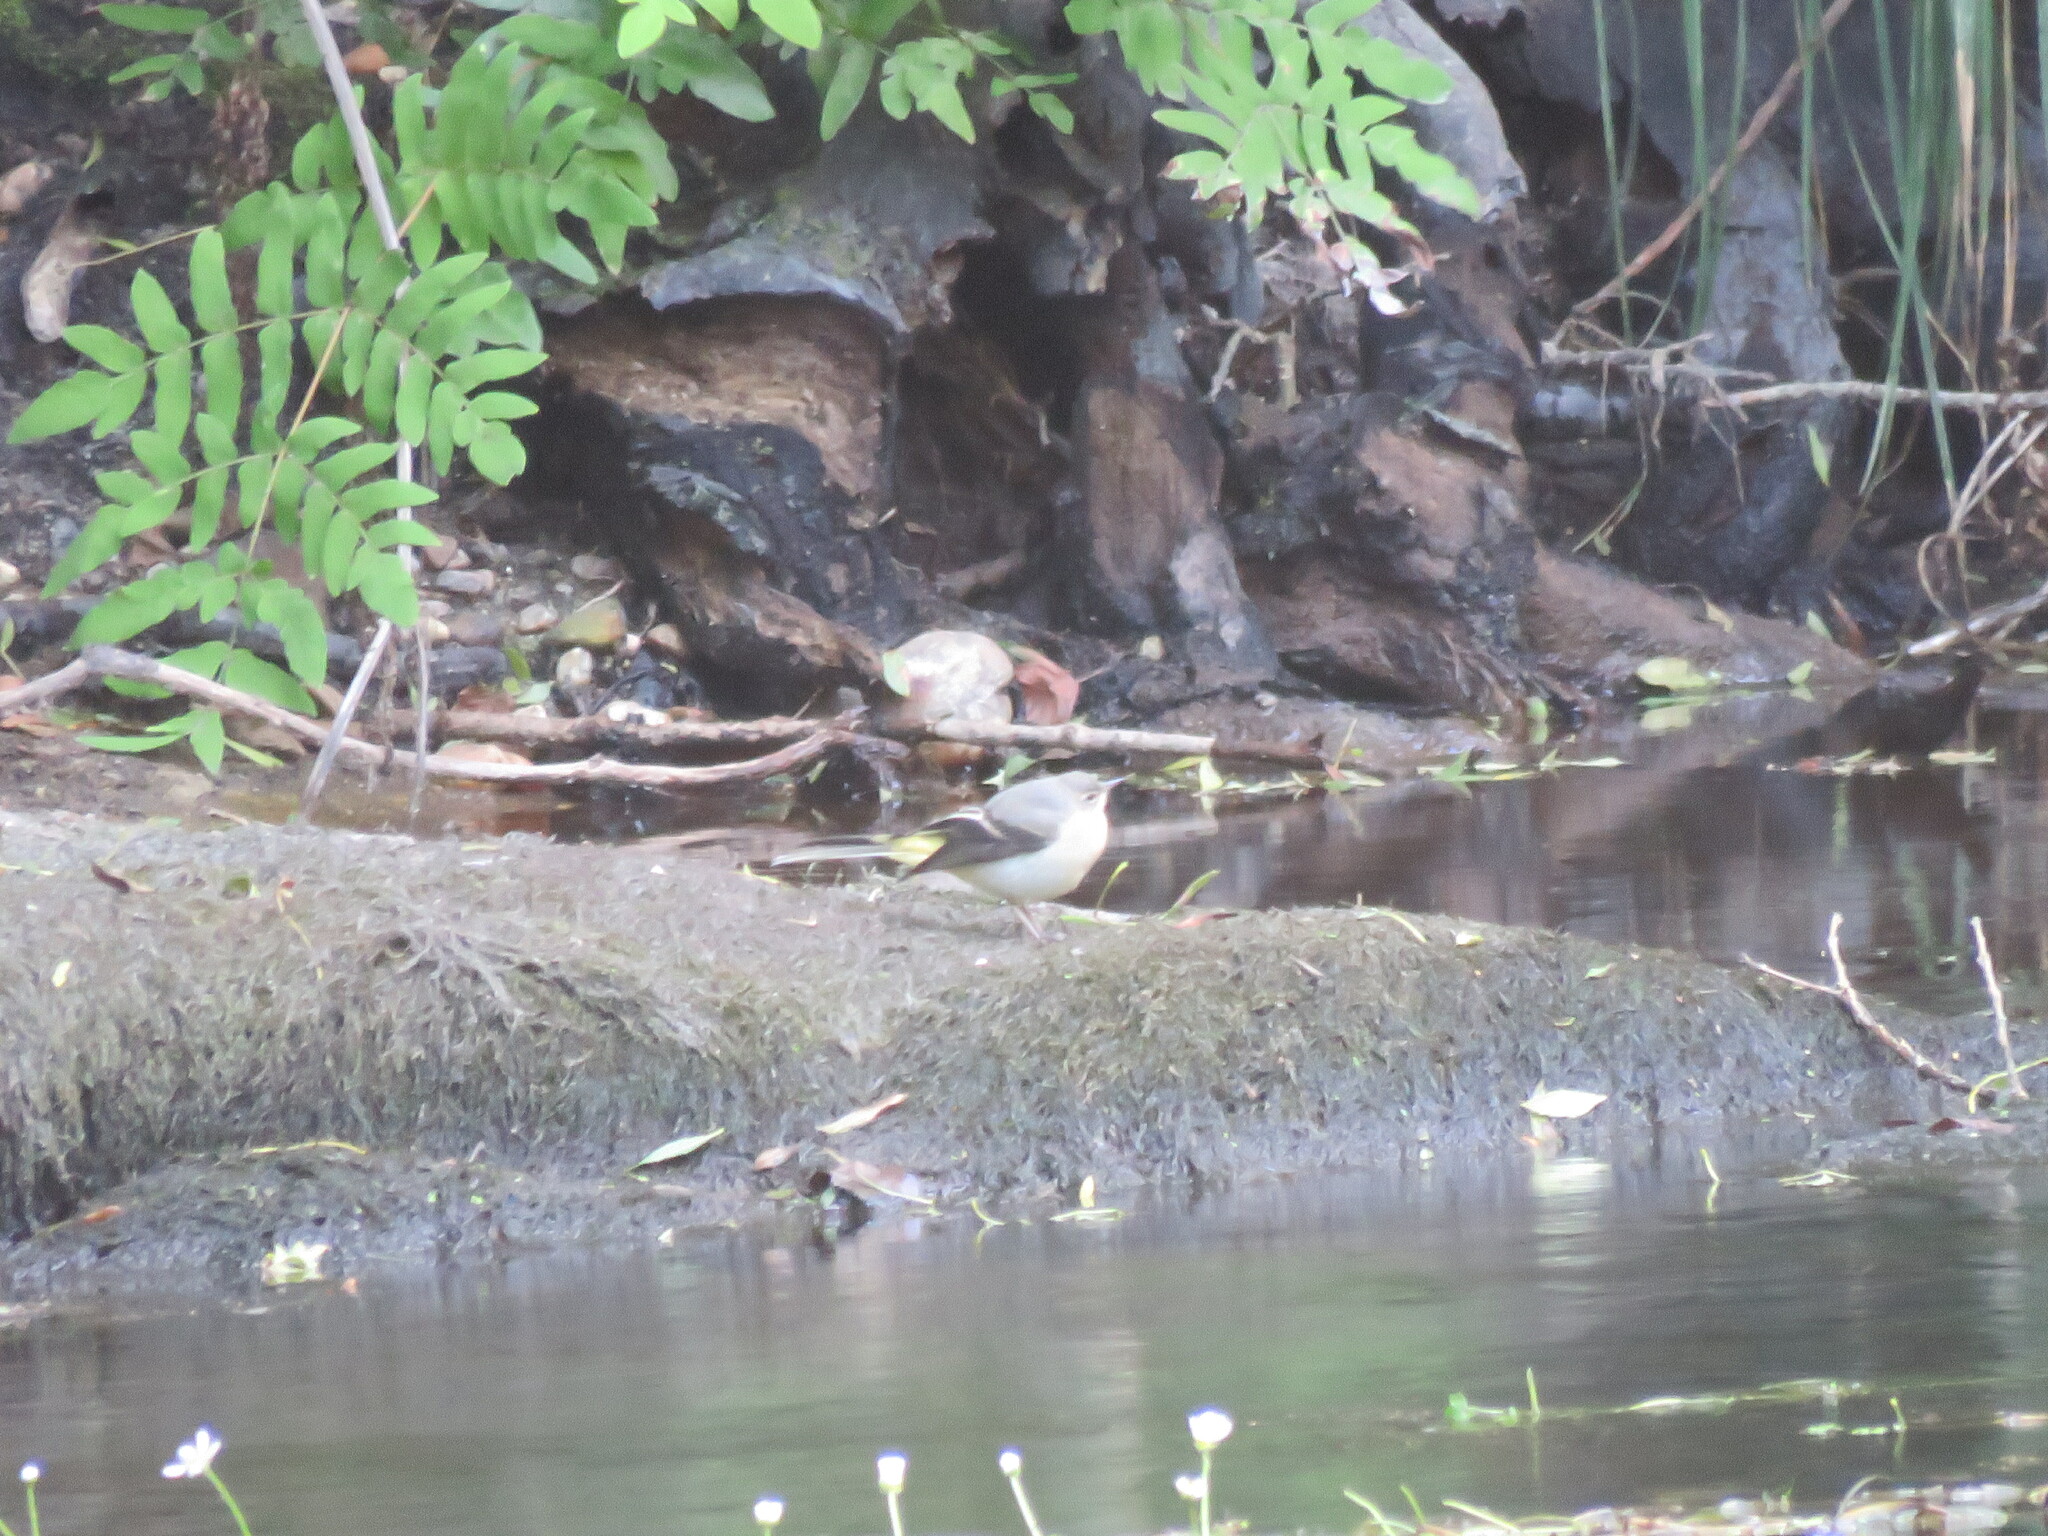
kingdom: Animalia
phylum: Chordata
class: Aves
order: Passeriformes
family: Motacillidae
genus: Motacilla
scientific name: Motacilla cinerea
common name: Grey wagtail
